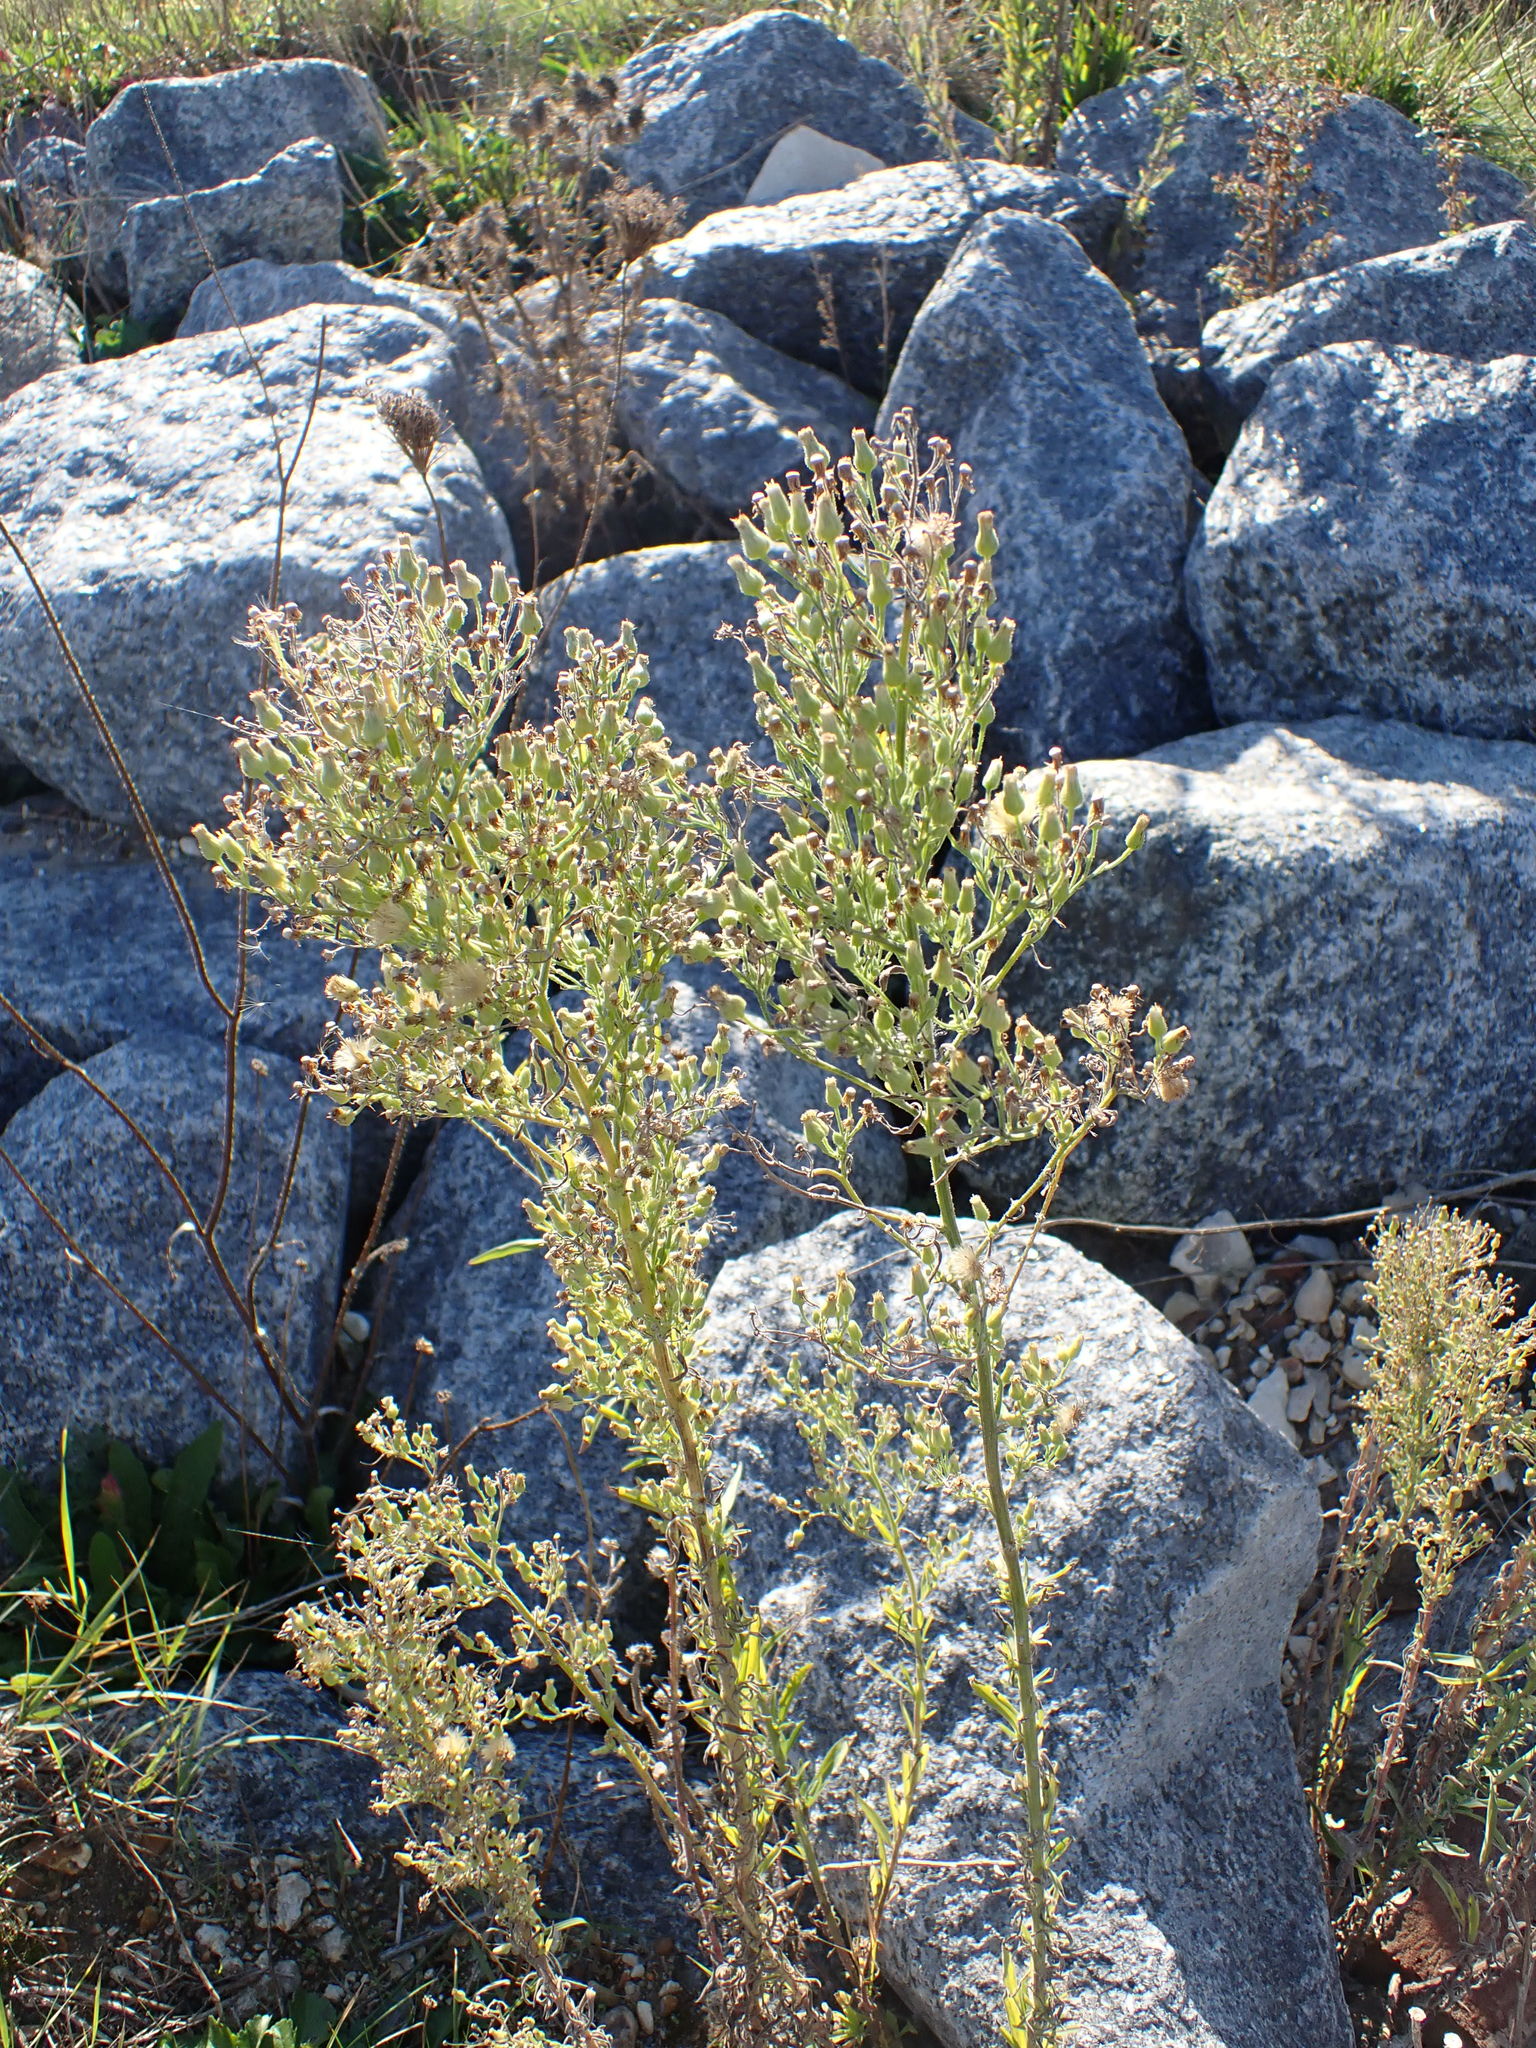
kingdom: Plantae
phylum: Tracheophyta
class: Magnoliopsida
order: Asterales
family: Asteraceae
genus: Erigeron
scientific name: Erigeron sumatrensis
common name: Daisy
